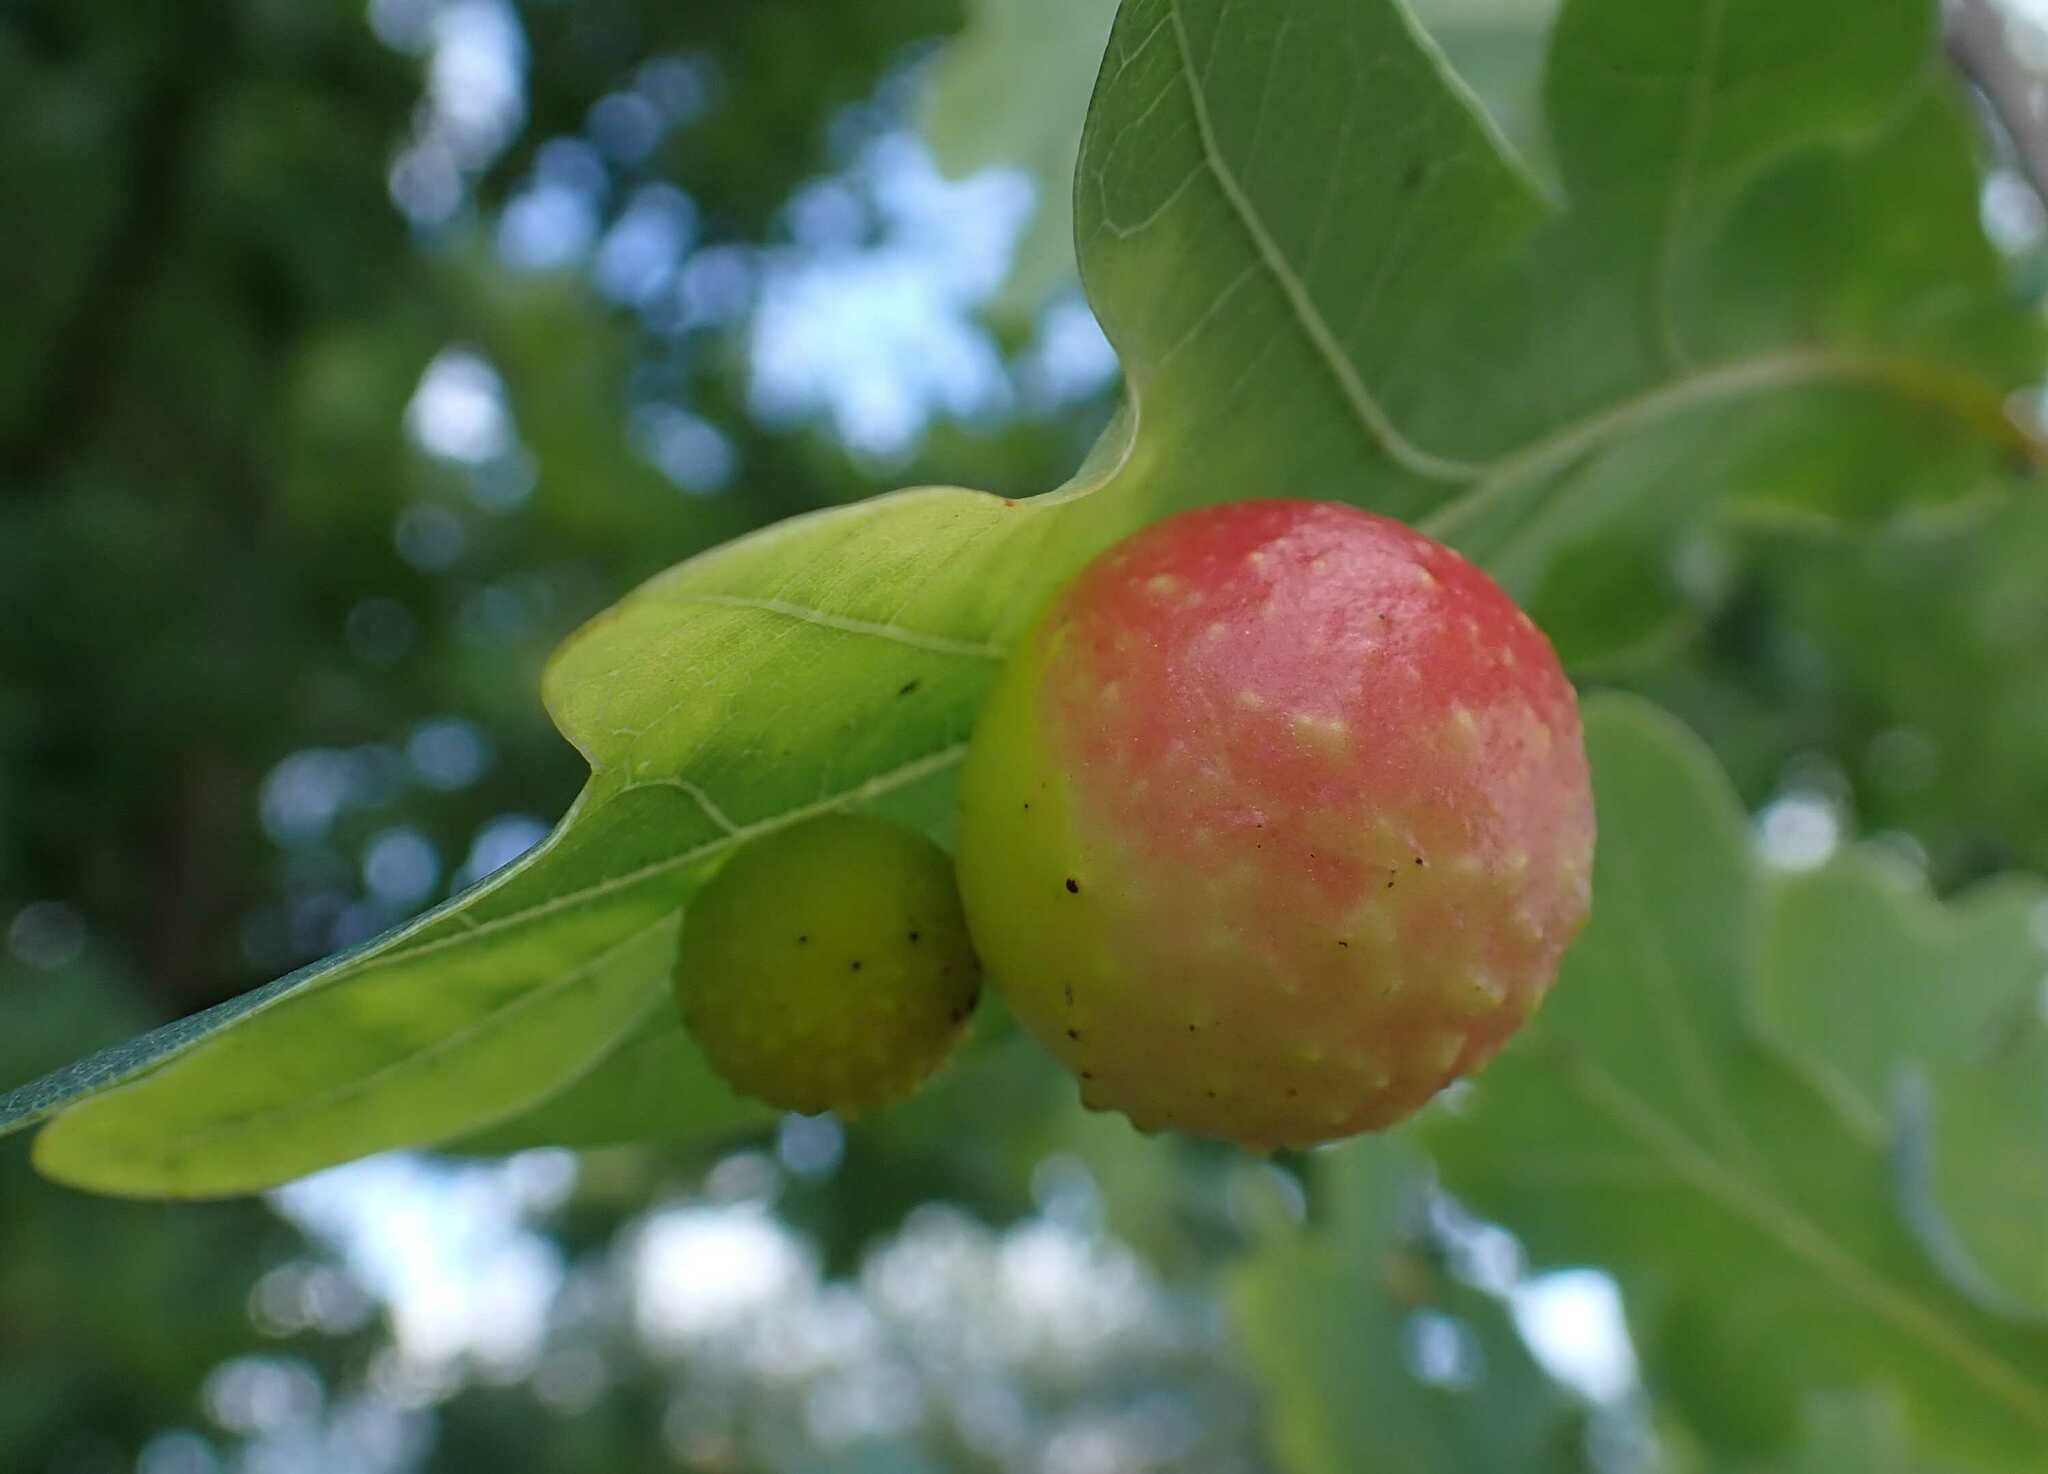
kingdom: Animalia
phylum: Arthropoda
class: Insecta
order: Hymenoptera
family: Cynipidae
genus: Cynips
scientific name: Cynips quercusfolii
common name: Cherry gall
